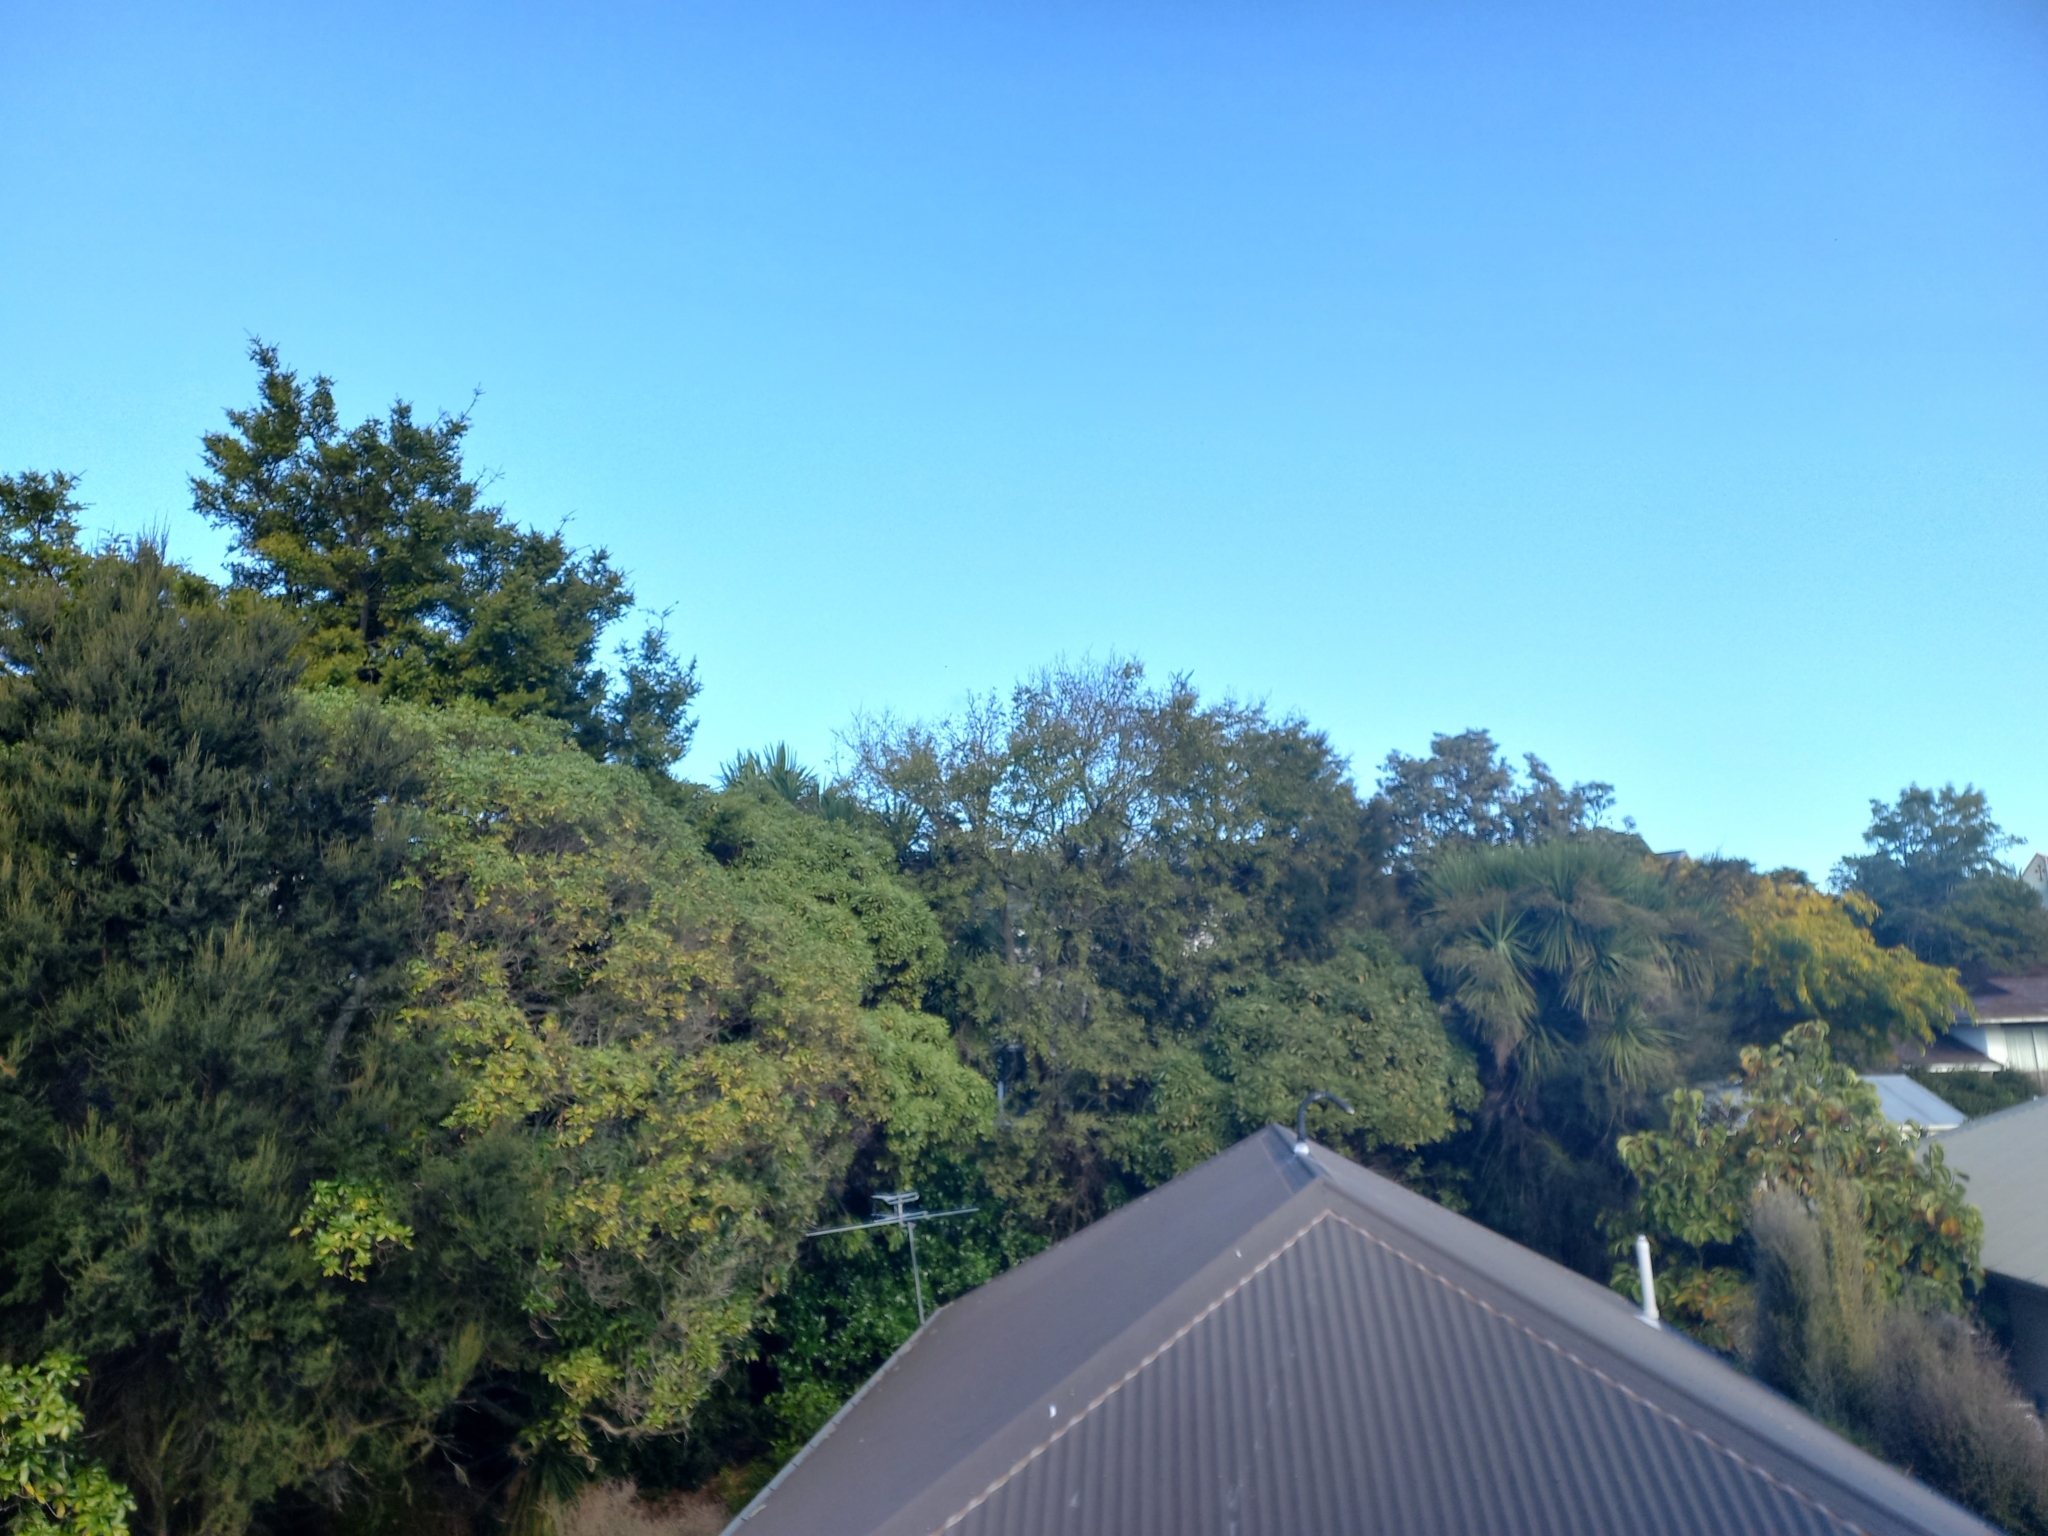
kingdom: Animalia
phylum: Chordata
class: Aves
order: Passeriformes
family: Meliphagidae
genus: Anthornis
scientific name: Anthornis melanura
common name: New zealand bellbird
